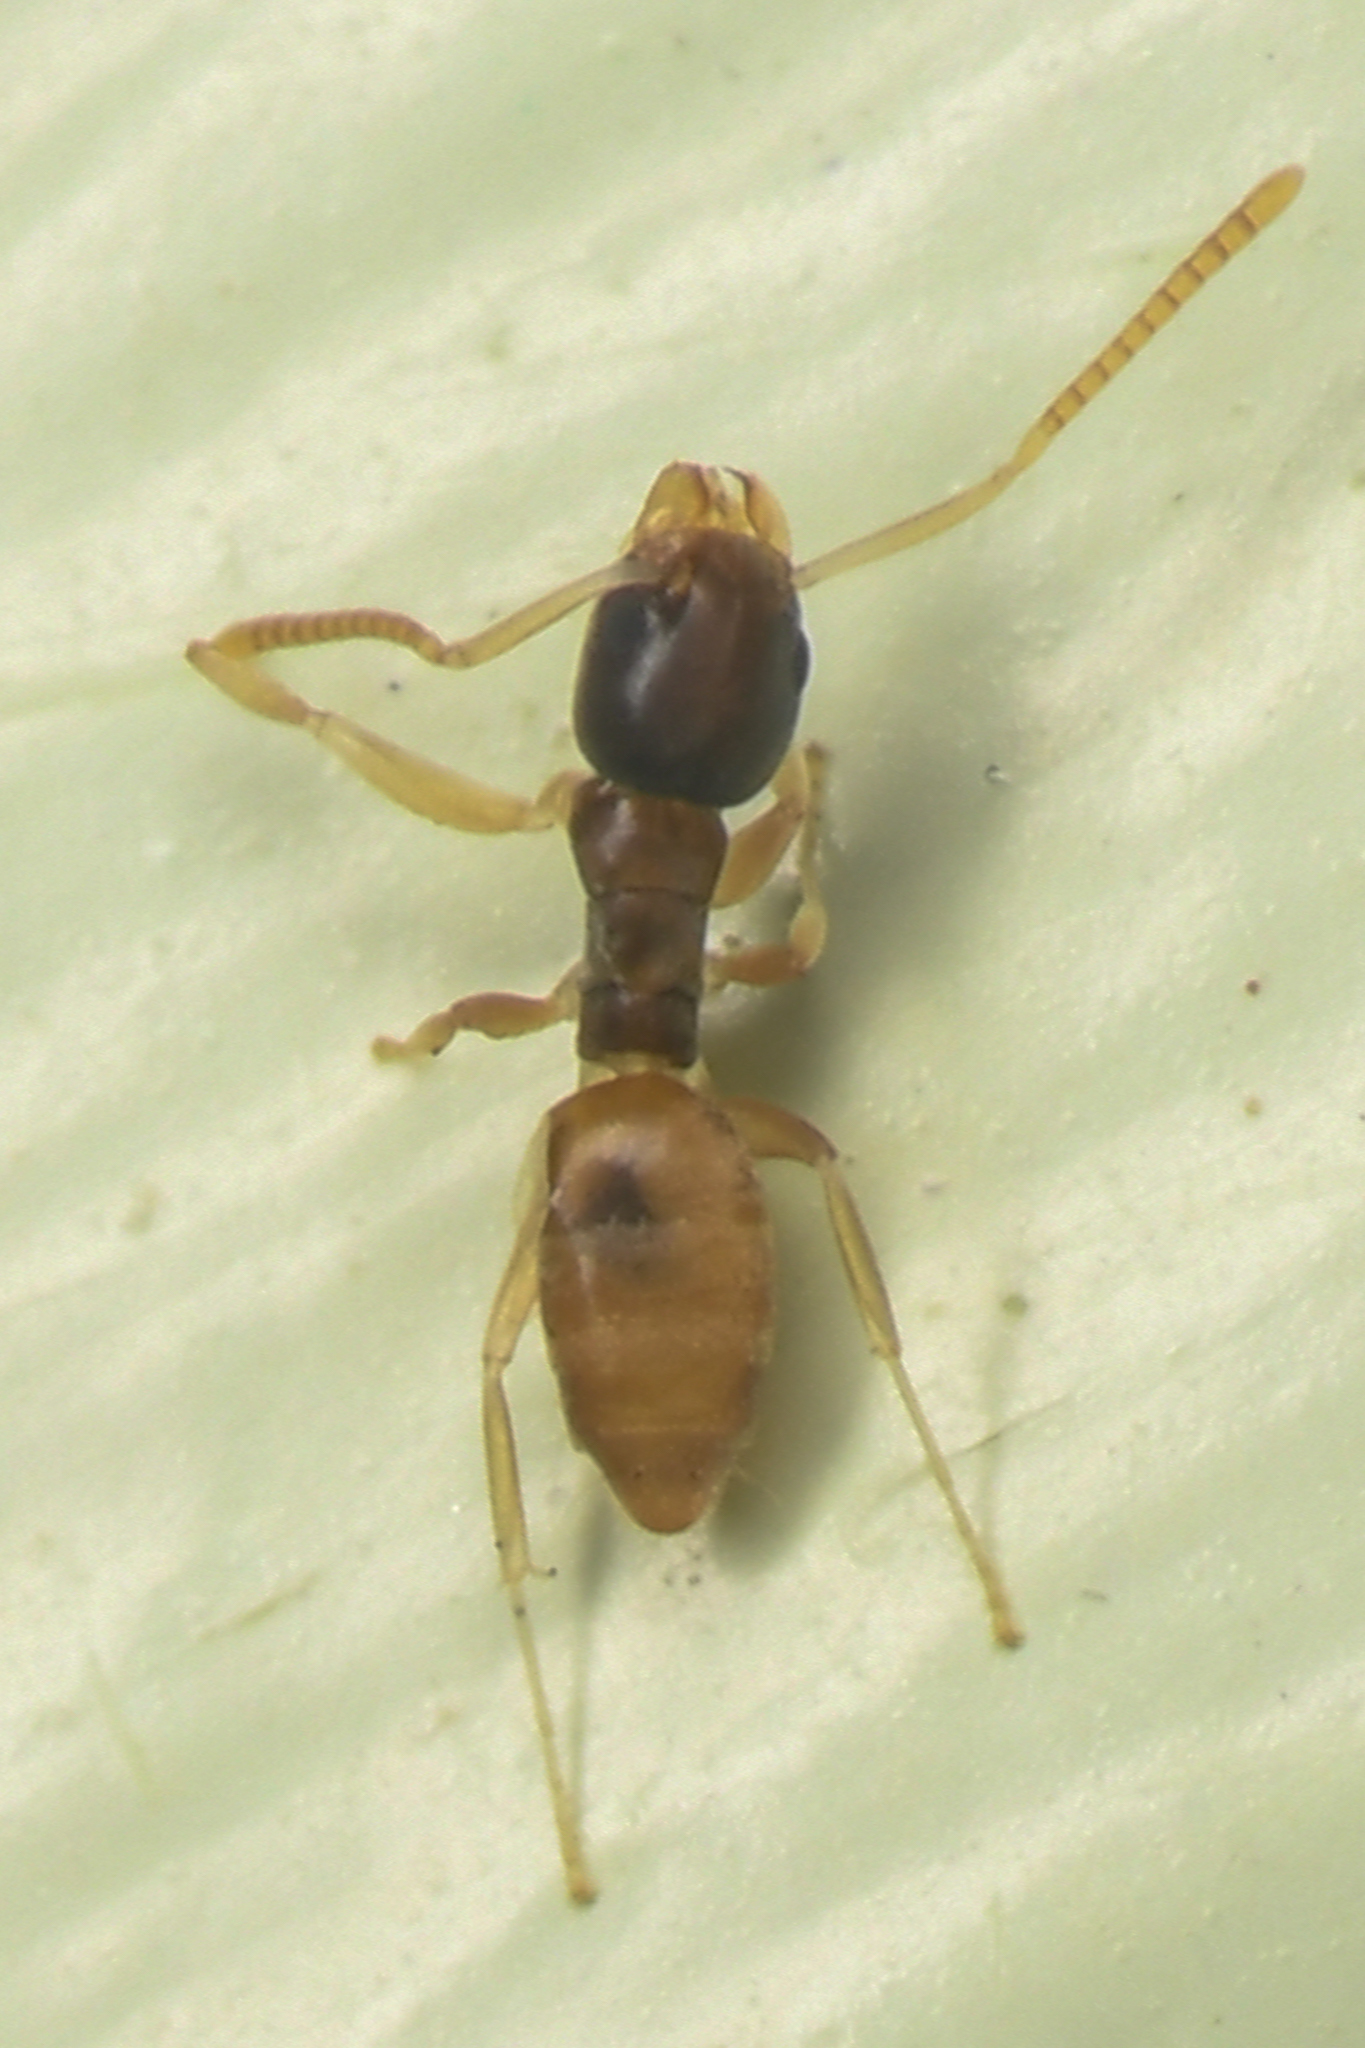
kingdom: Animalia
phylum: Arthropoda
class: Insecta
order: Hymenoptera
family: Formicidae
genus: Tapinoma
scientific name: Tapinoma melanocephalum
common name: Ghost ant
